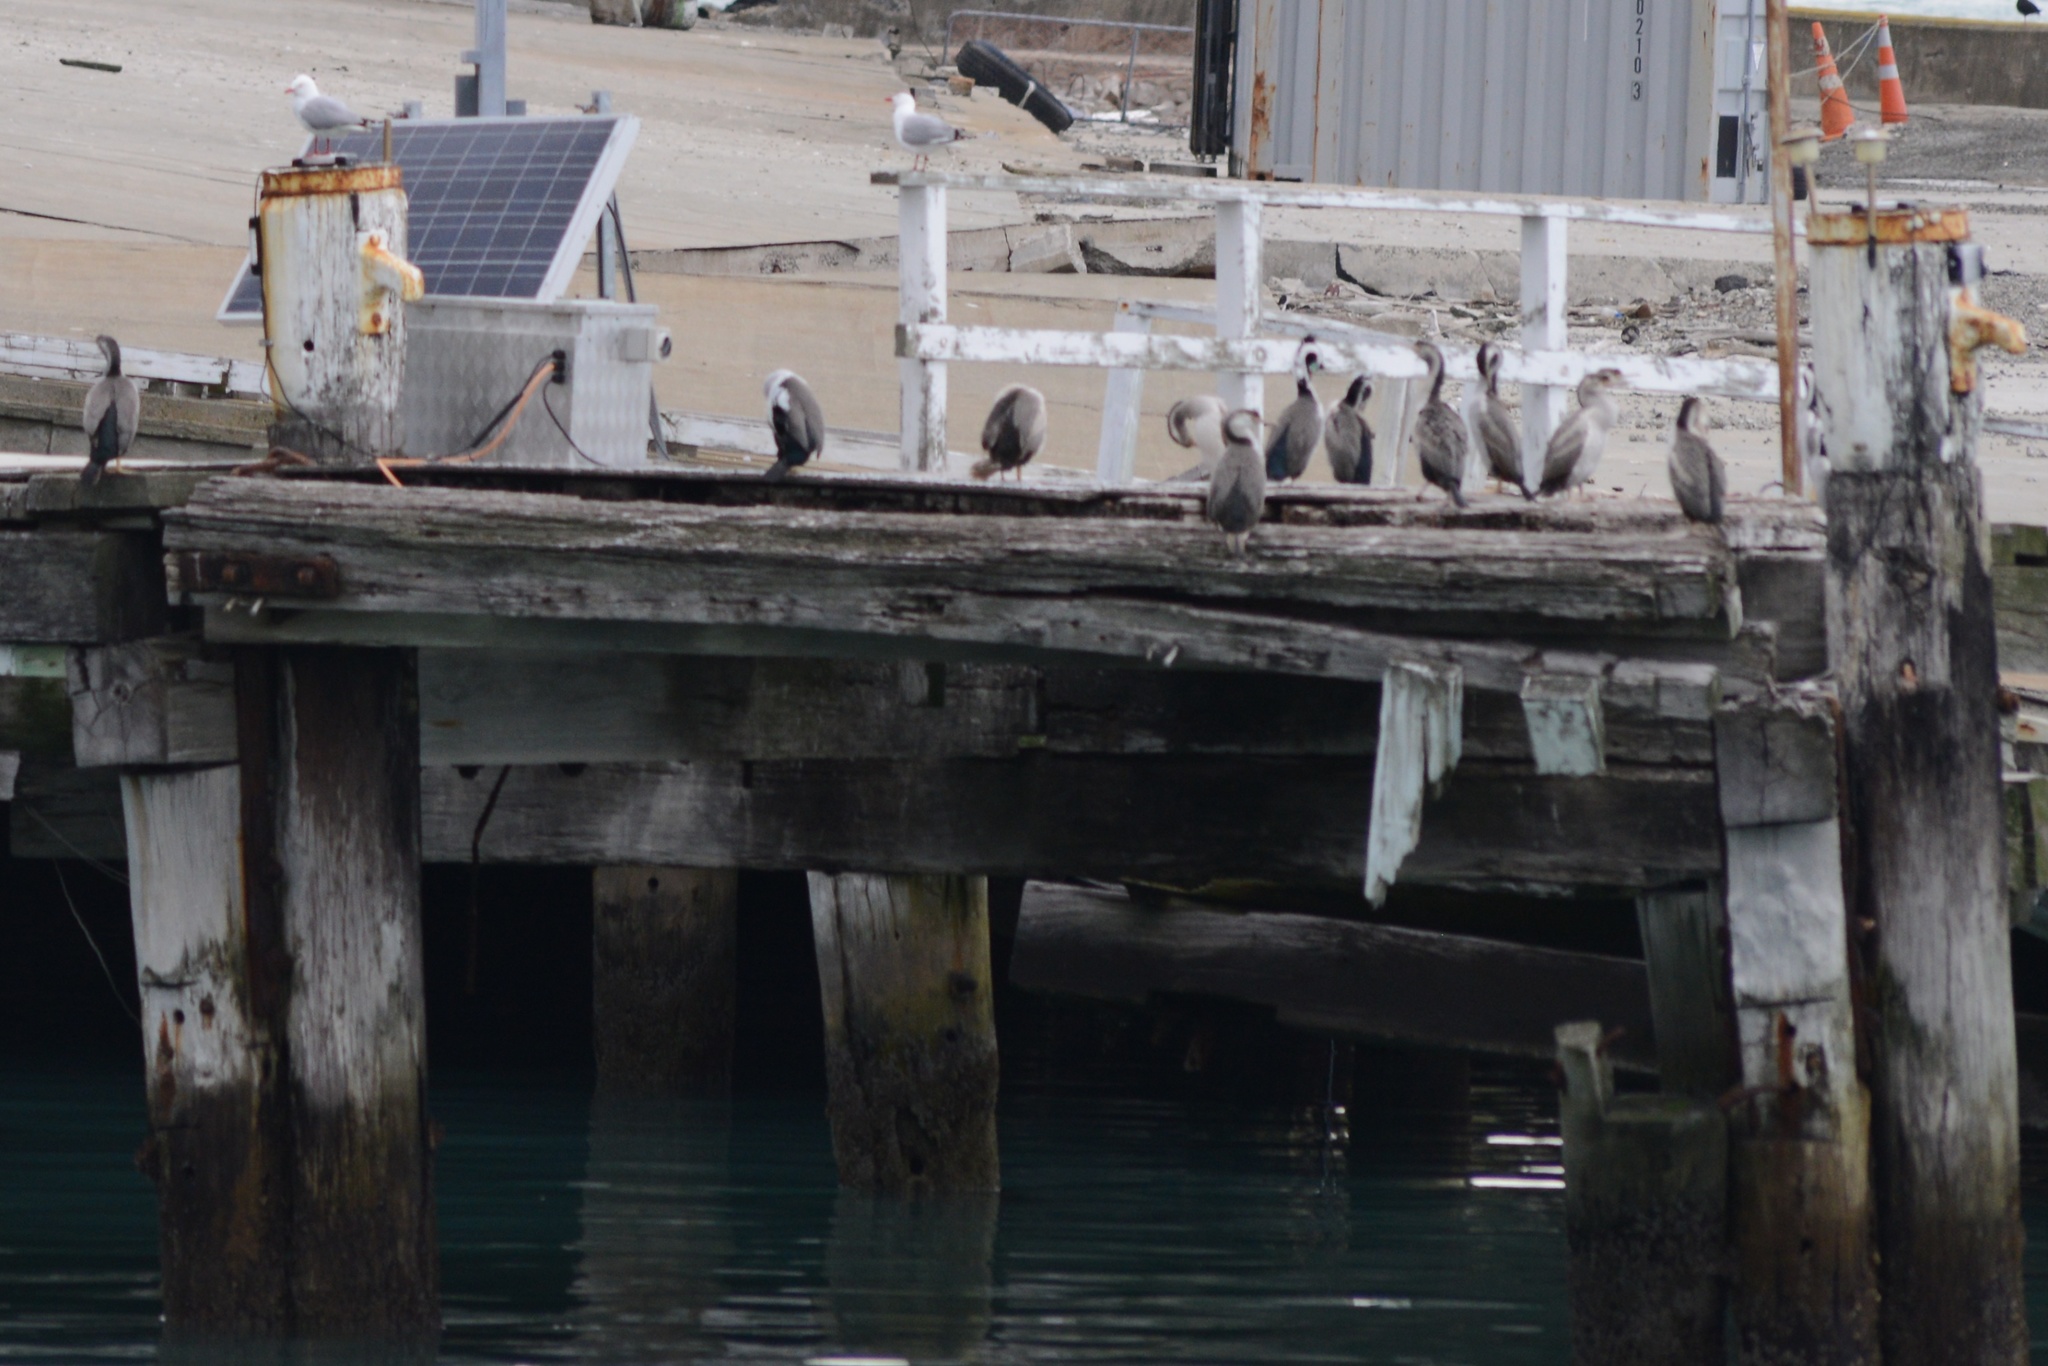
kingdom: Animalia
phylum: Chordata
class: Aves
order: Suliformes
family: Phalacrocoracidae
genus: Phalacrocorax
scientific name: Phalacrocorax punctatus
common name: Spotted shag
